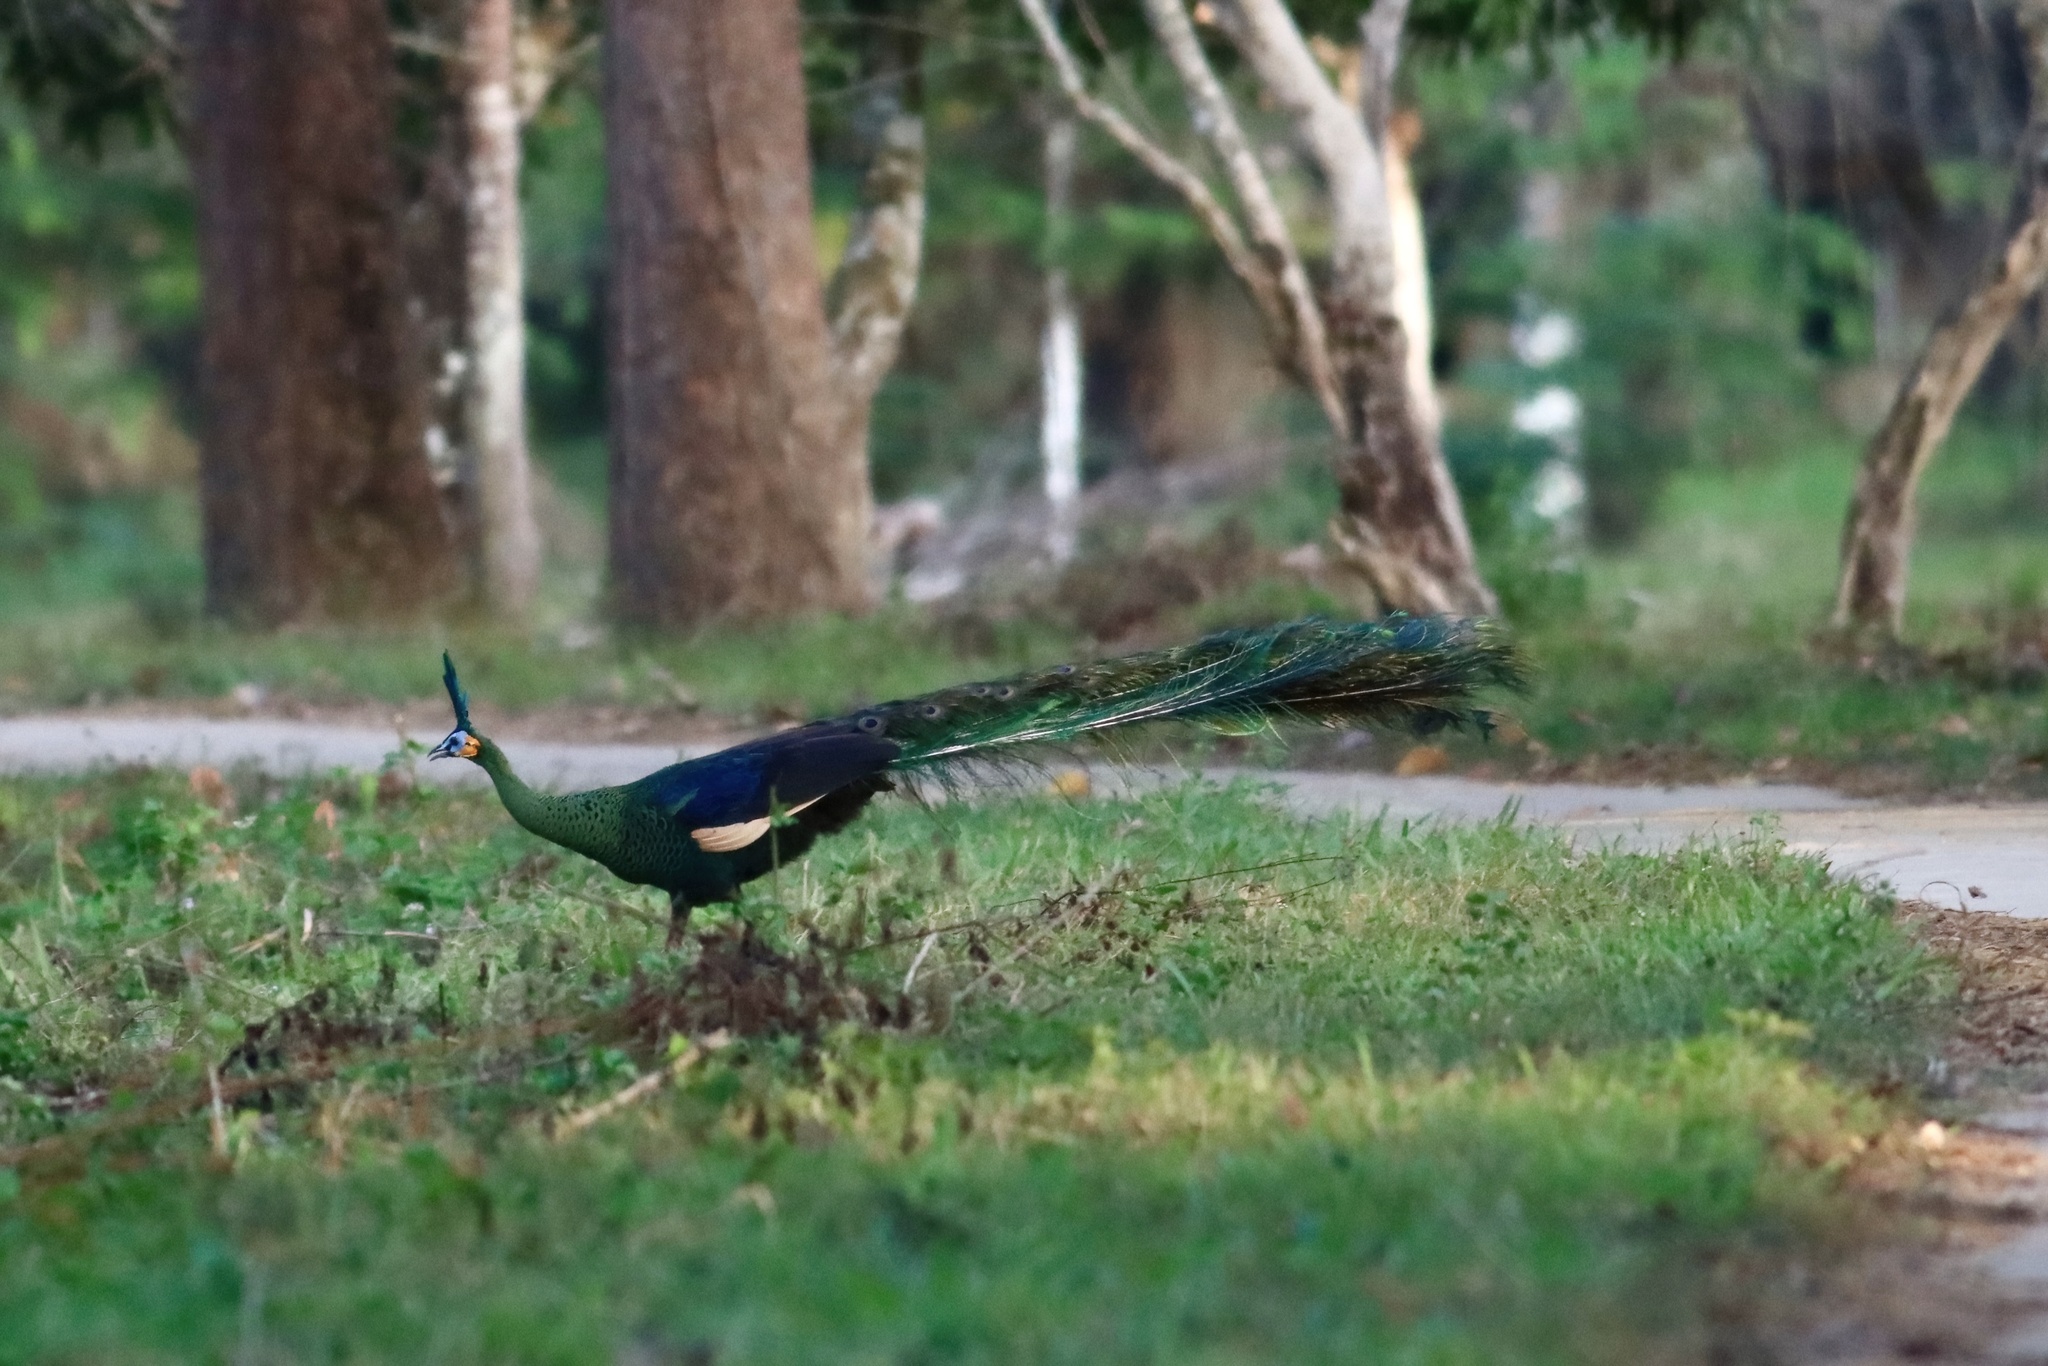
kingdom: Animalia
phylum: Chordata
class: Aves
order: Galliformes
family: Phasianidae
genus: Pavo
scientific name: Pavo muticus
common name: Green peafowl
